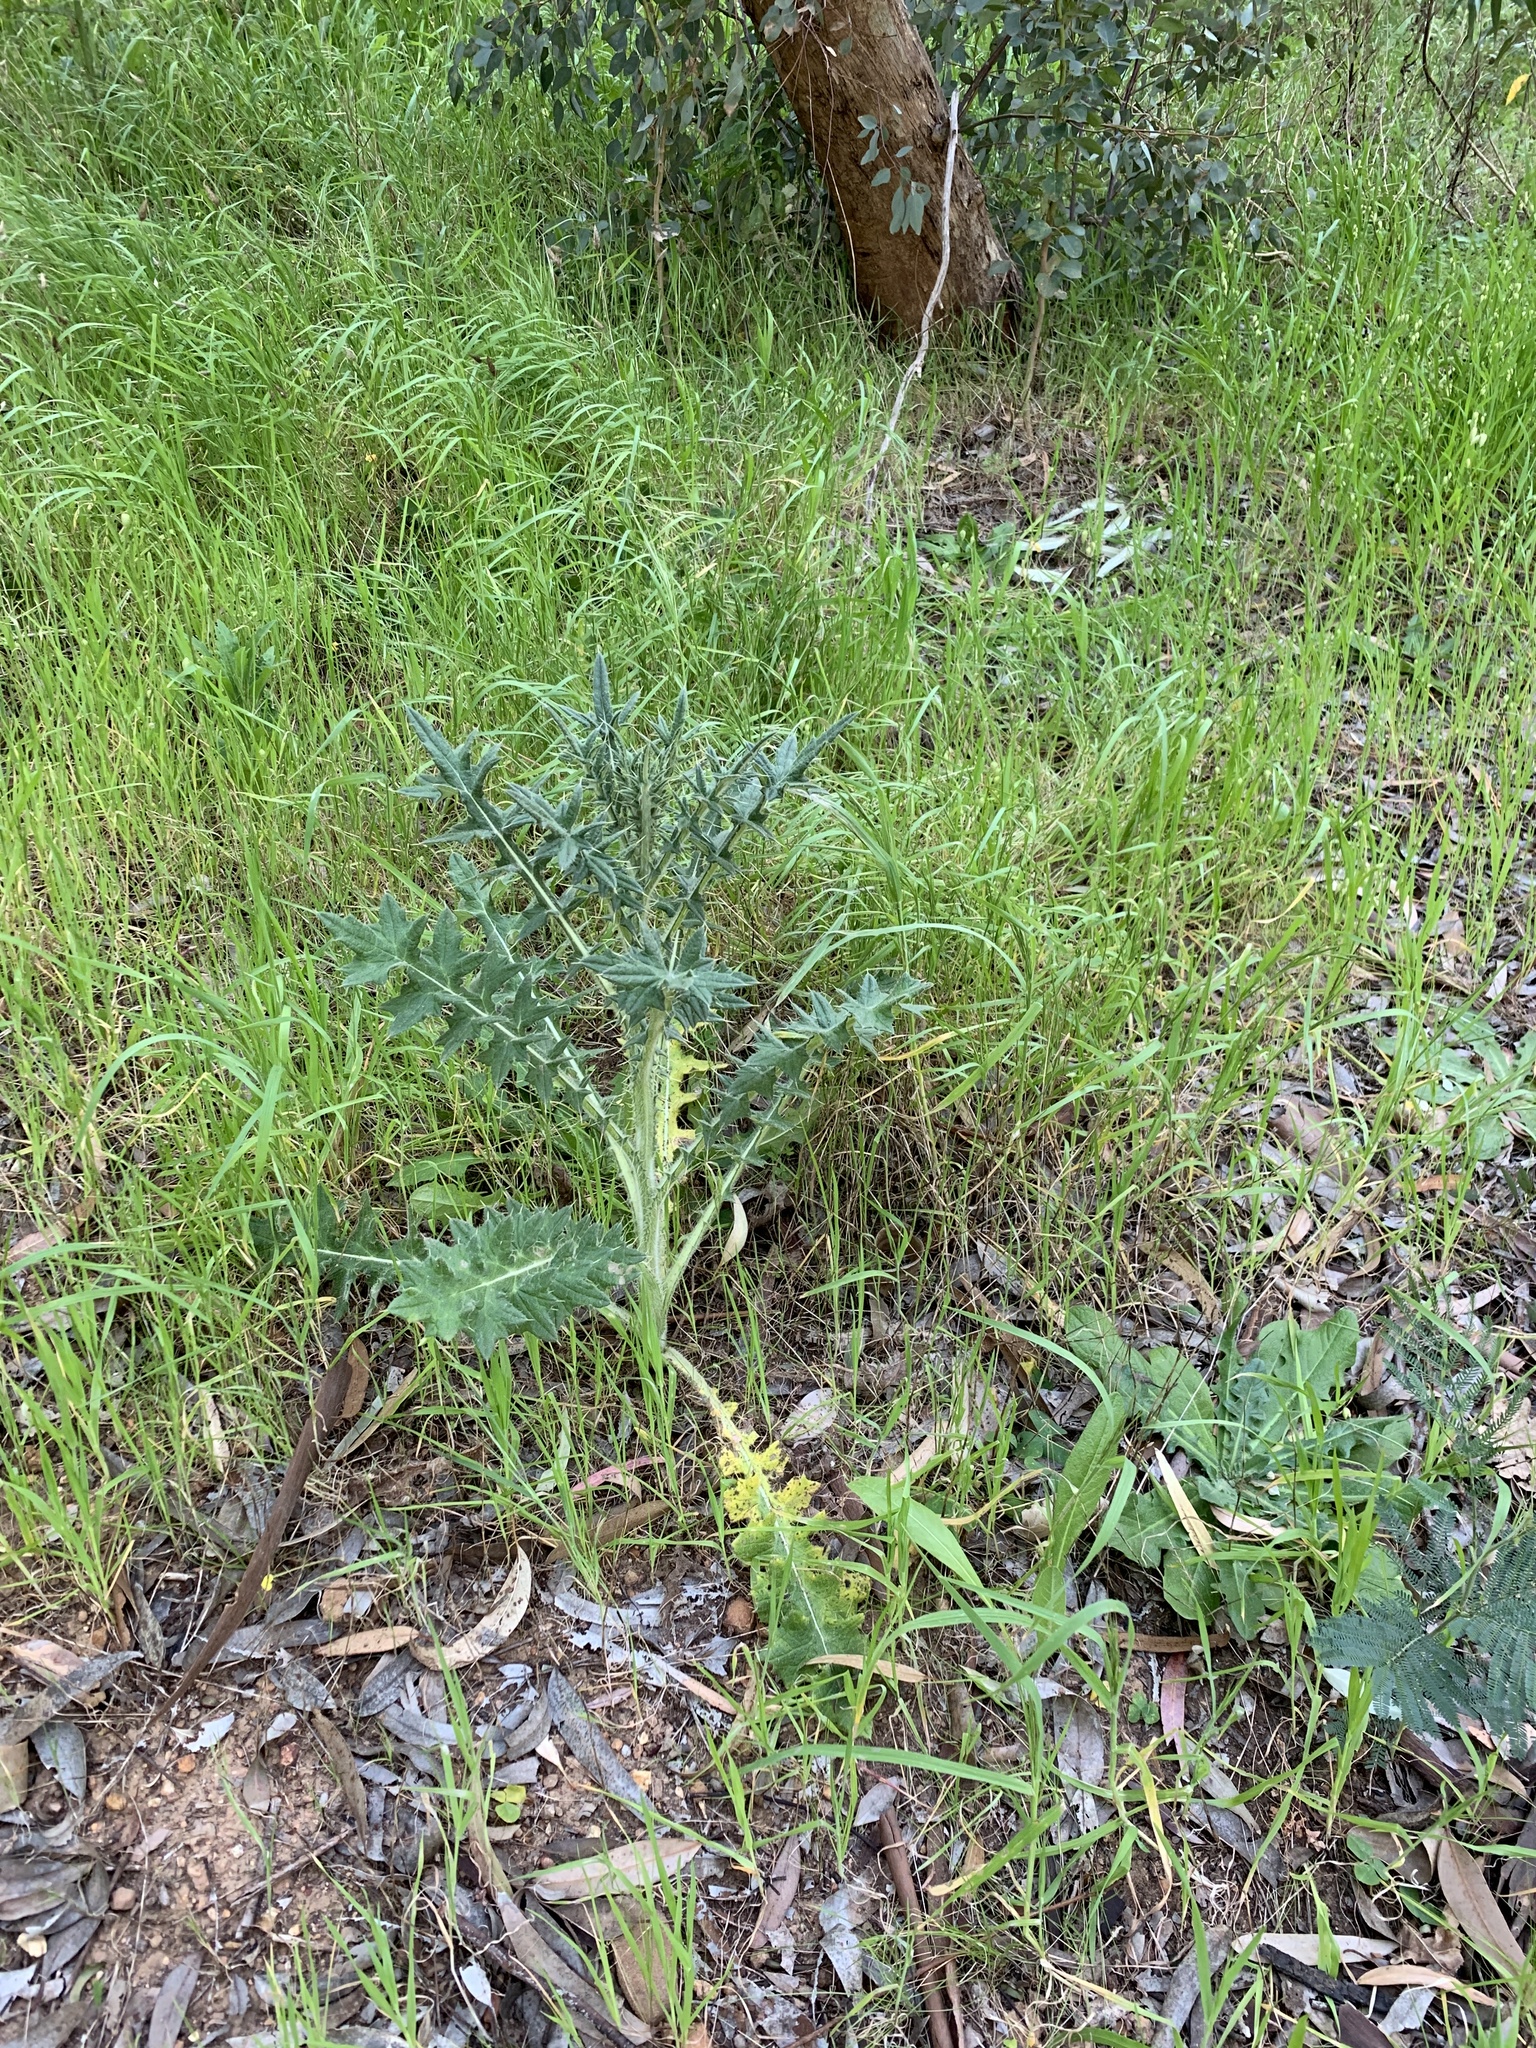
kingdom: Plantae
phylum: Tracheophyta
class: Magnoliopsida
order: Asterales
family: Asteraceae
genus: Cirsium
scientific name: Cirsium vulgare
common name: Bull thistle
